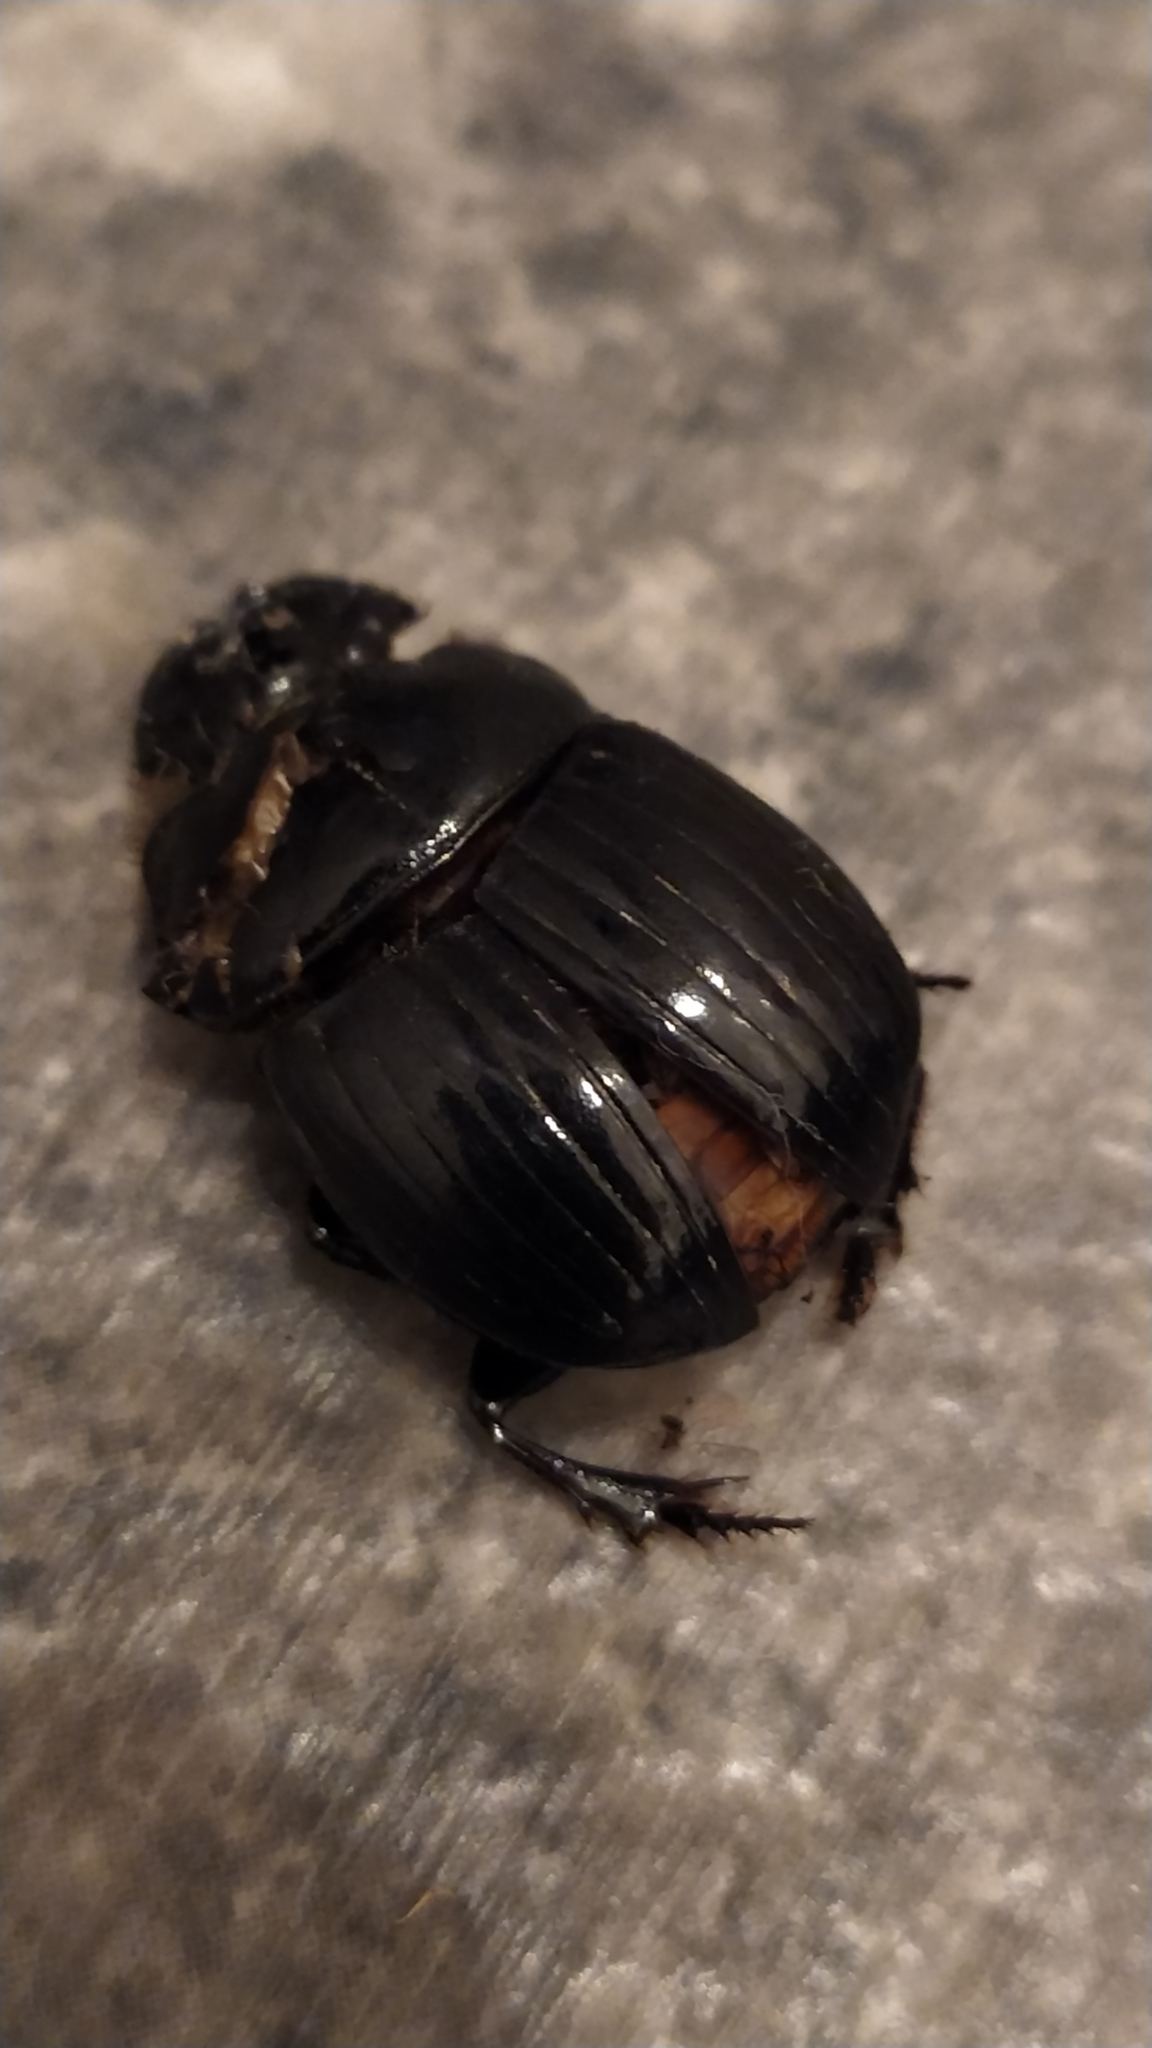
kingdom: Animalia
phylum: Arthropoda
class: Insecta
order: Coleoptera
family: Scarabaeidae
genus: Copris
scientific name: Copris lunaris
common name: Horned dung beetle
